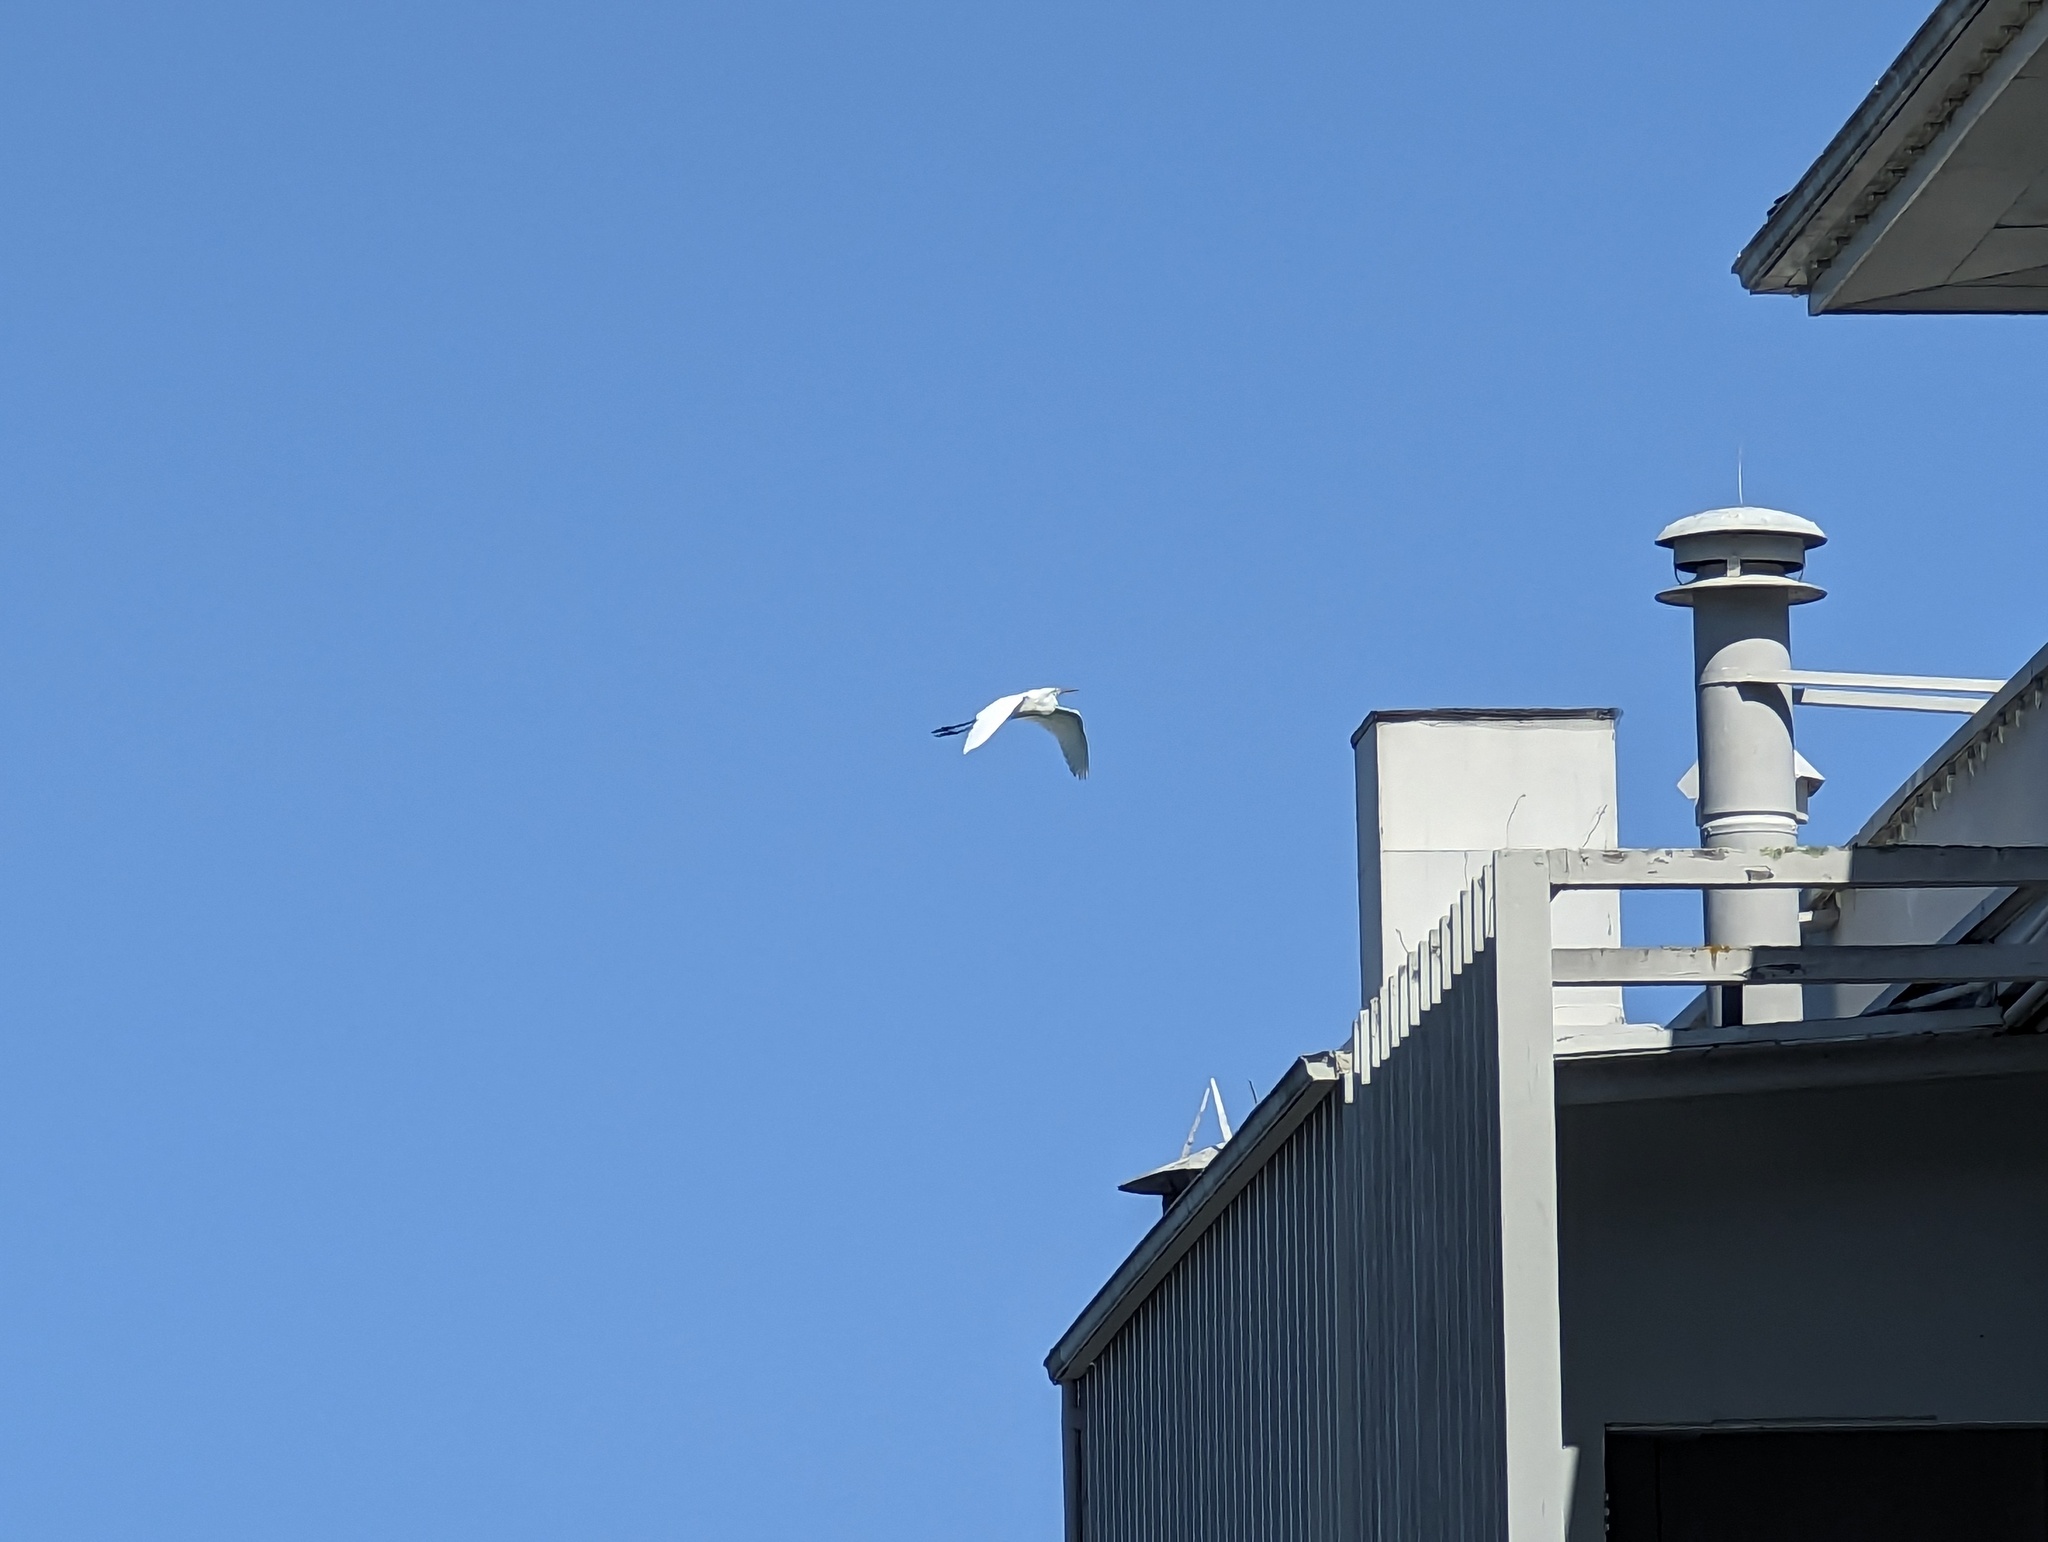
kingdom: Animalia
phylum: Chordata
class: Aves
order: Pelecaniformes
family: Ardeidae
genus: Ardea
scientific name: Ardea alba
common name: Great egret
